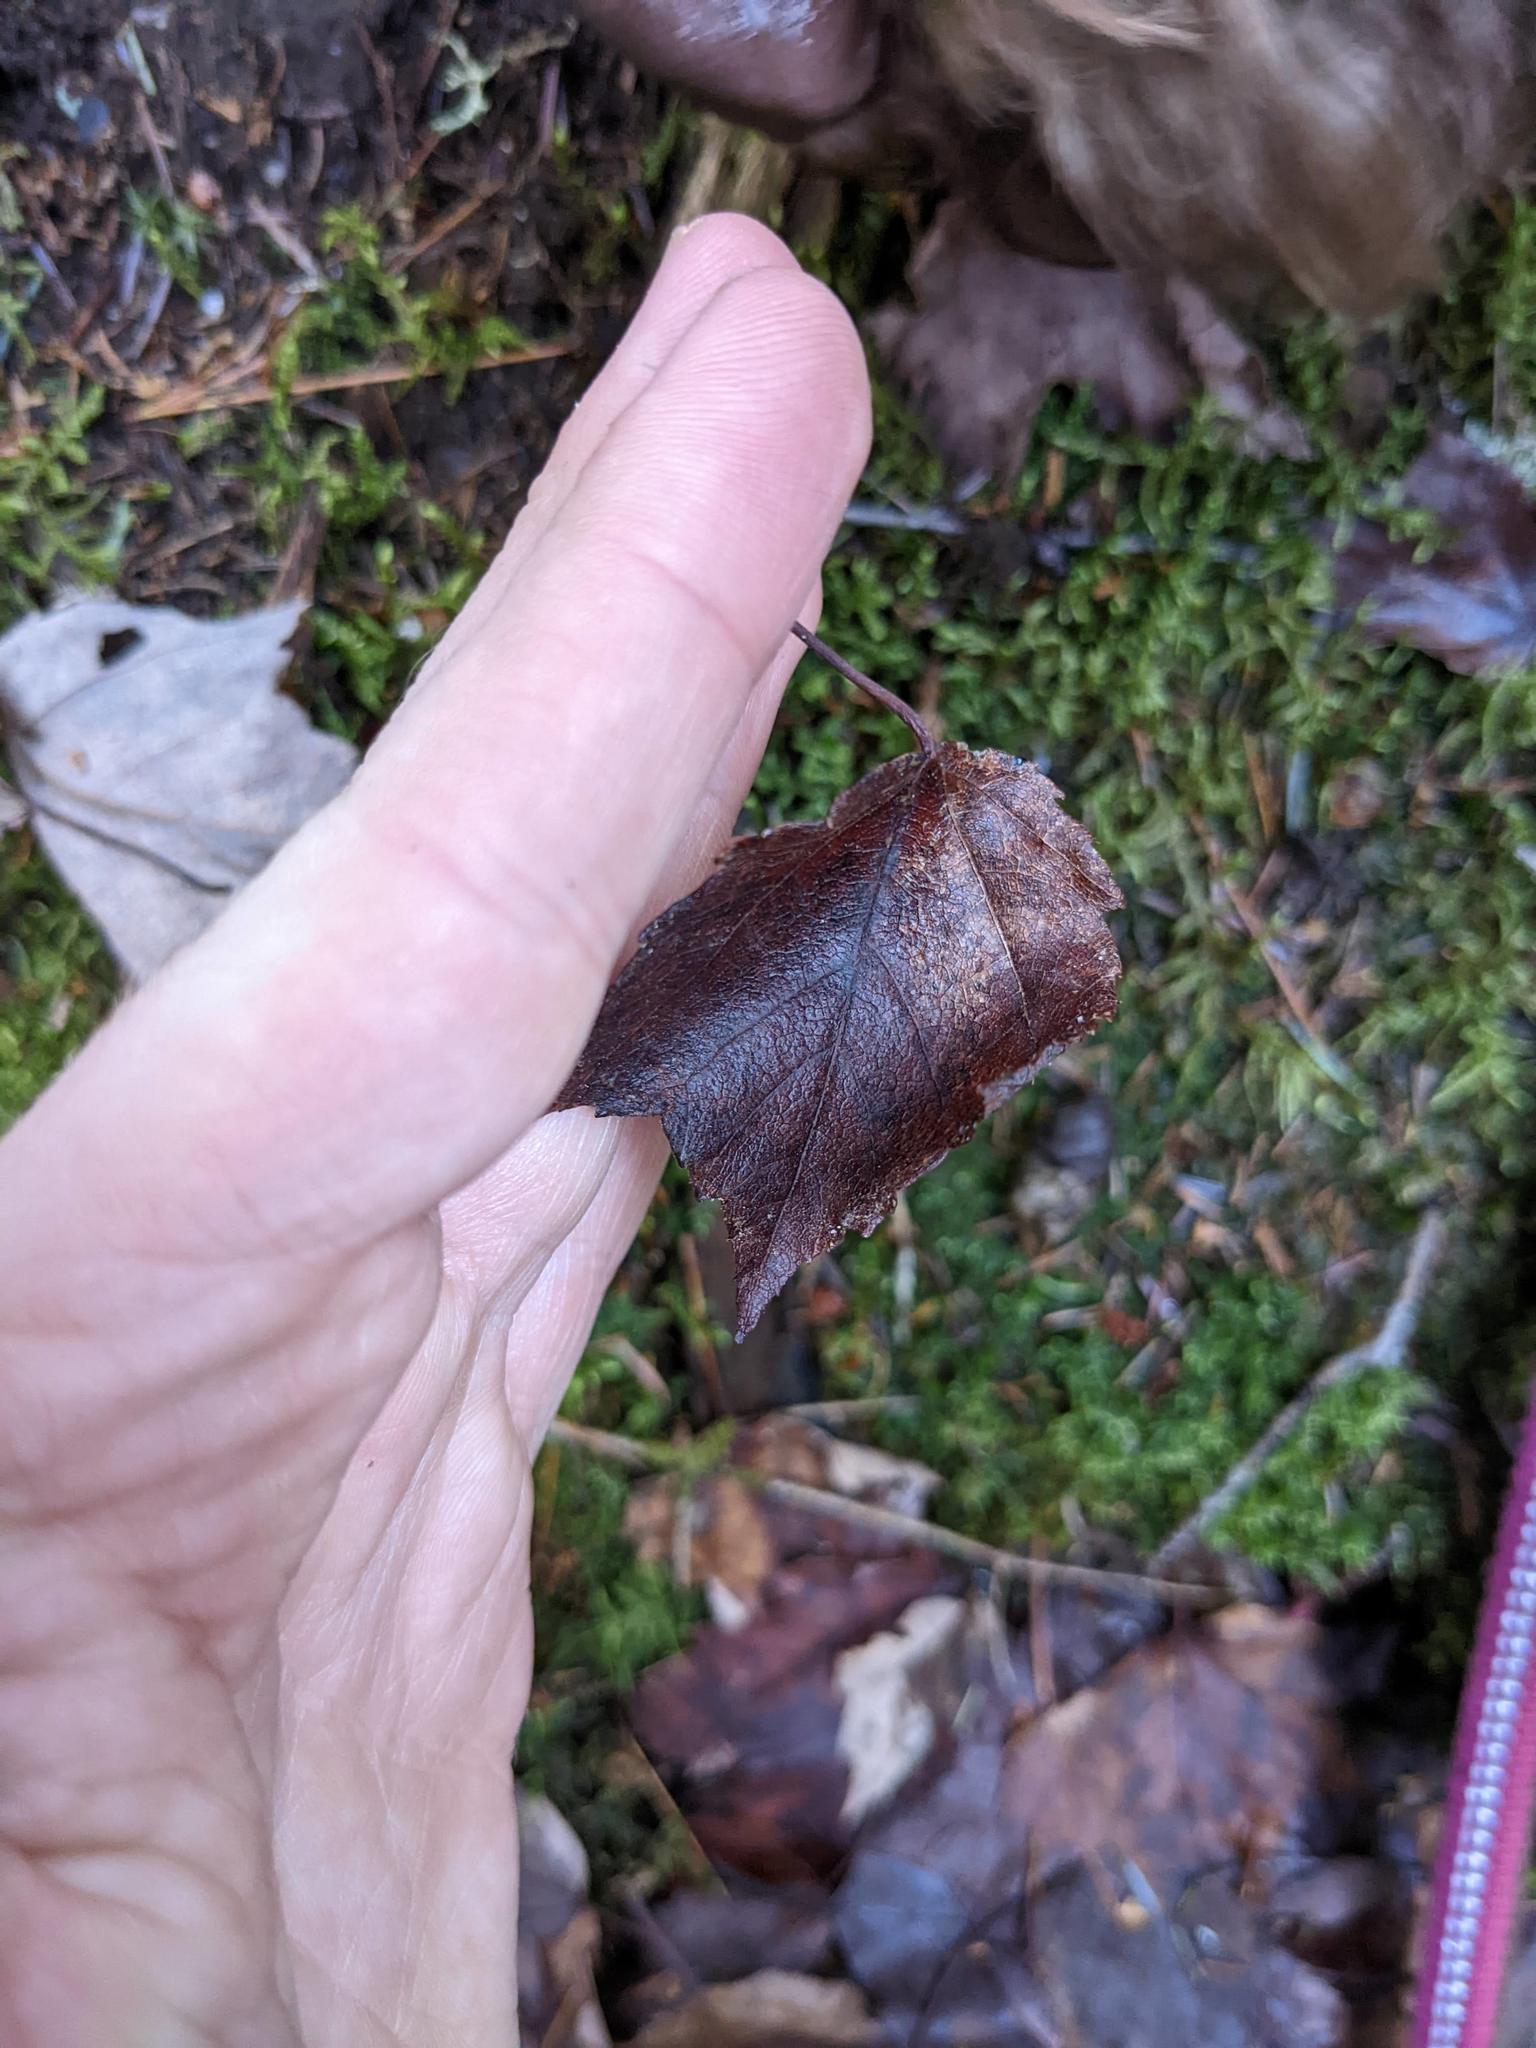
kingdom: Plantae
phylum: Tracheophyta
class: Magnoliopsida
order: Sapindales
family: Sapindaceae
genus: Acer
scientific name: Acer rubrum
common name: Red maple
